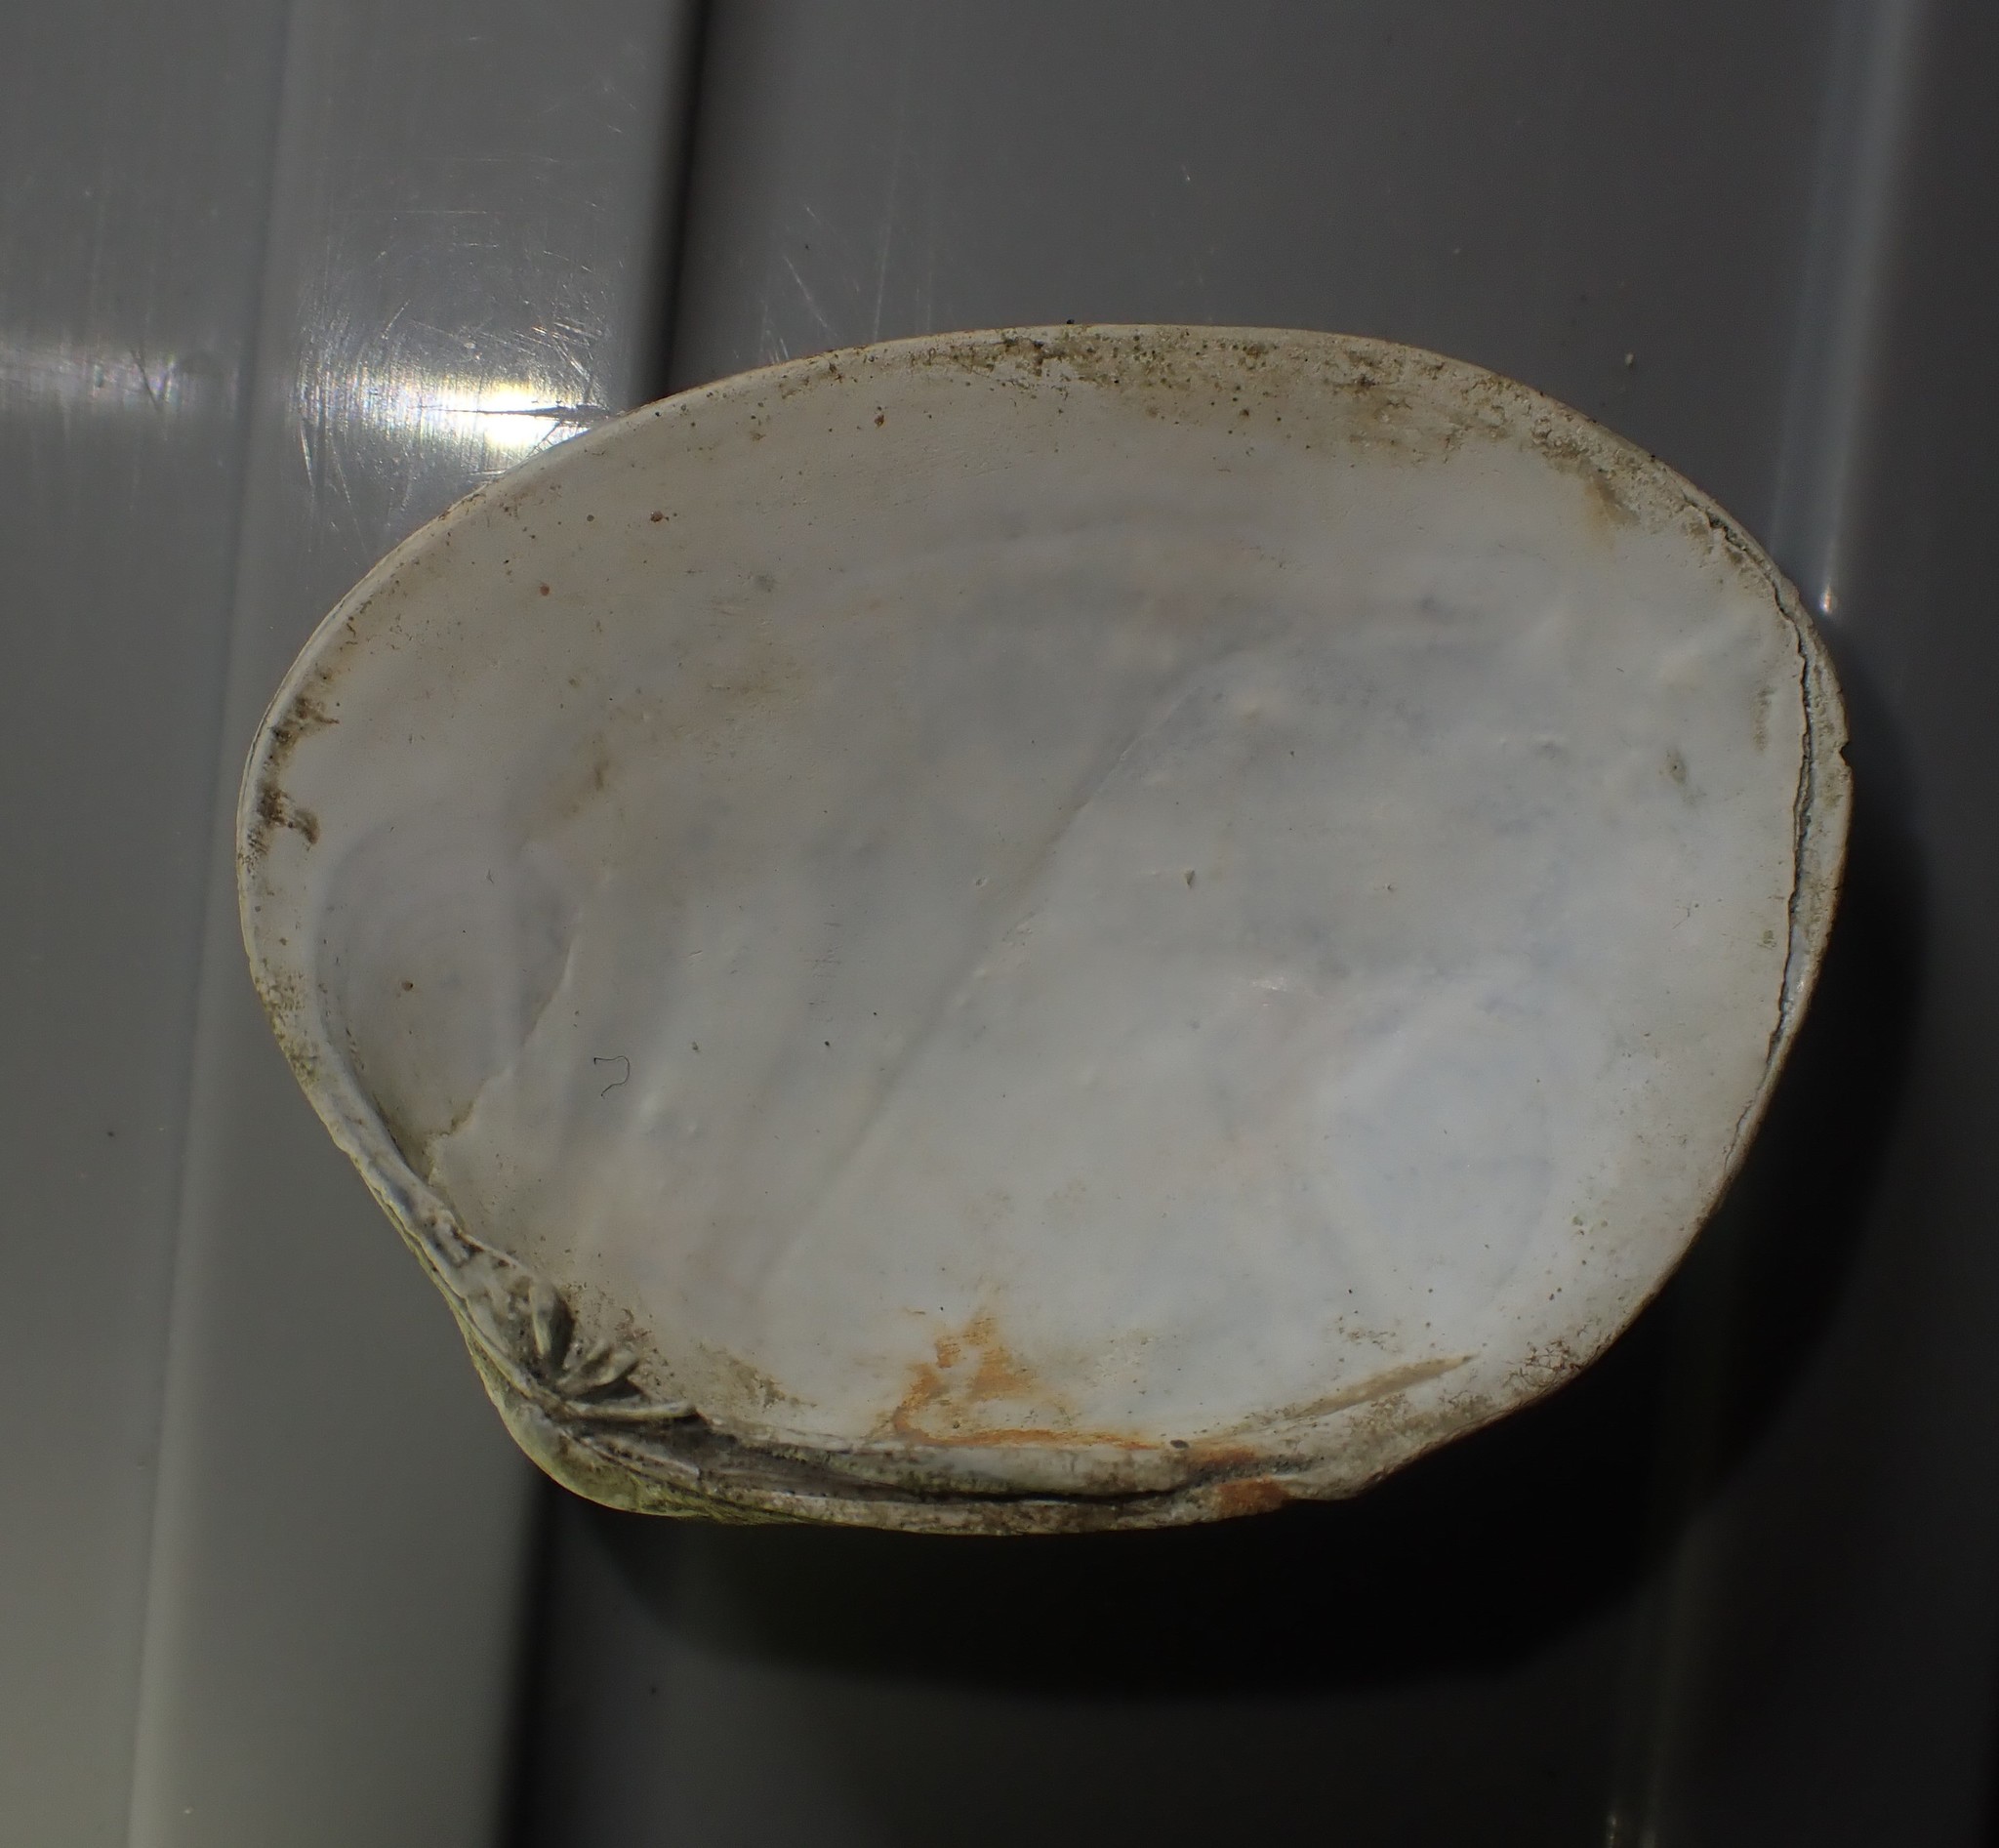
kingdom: Animalia
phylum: Mollusca
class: Bivalvia
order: Venerida
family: Veneridae
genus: Venerupis
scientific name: Venerupis largillierti
